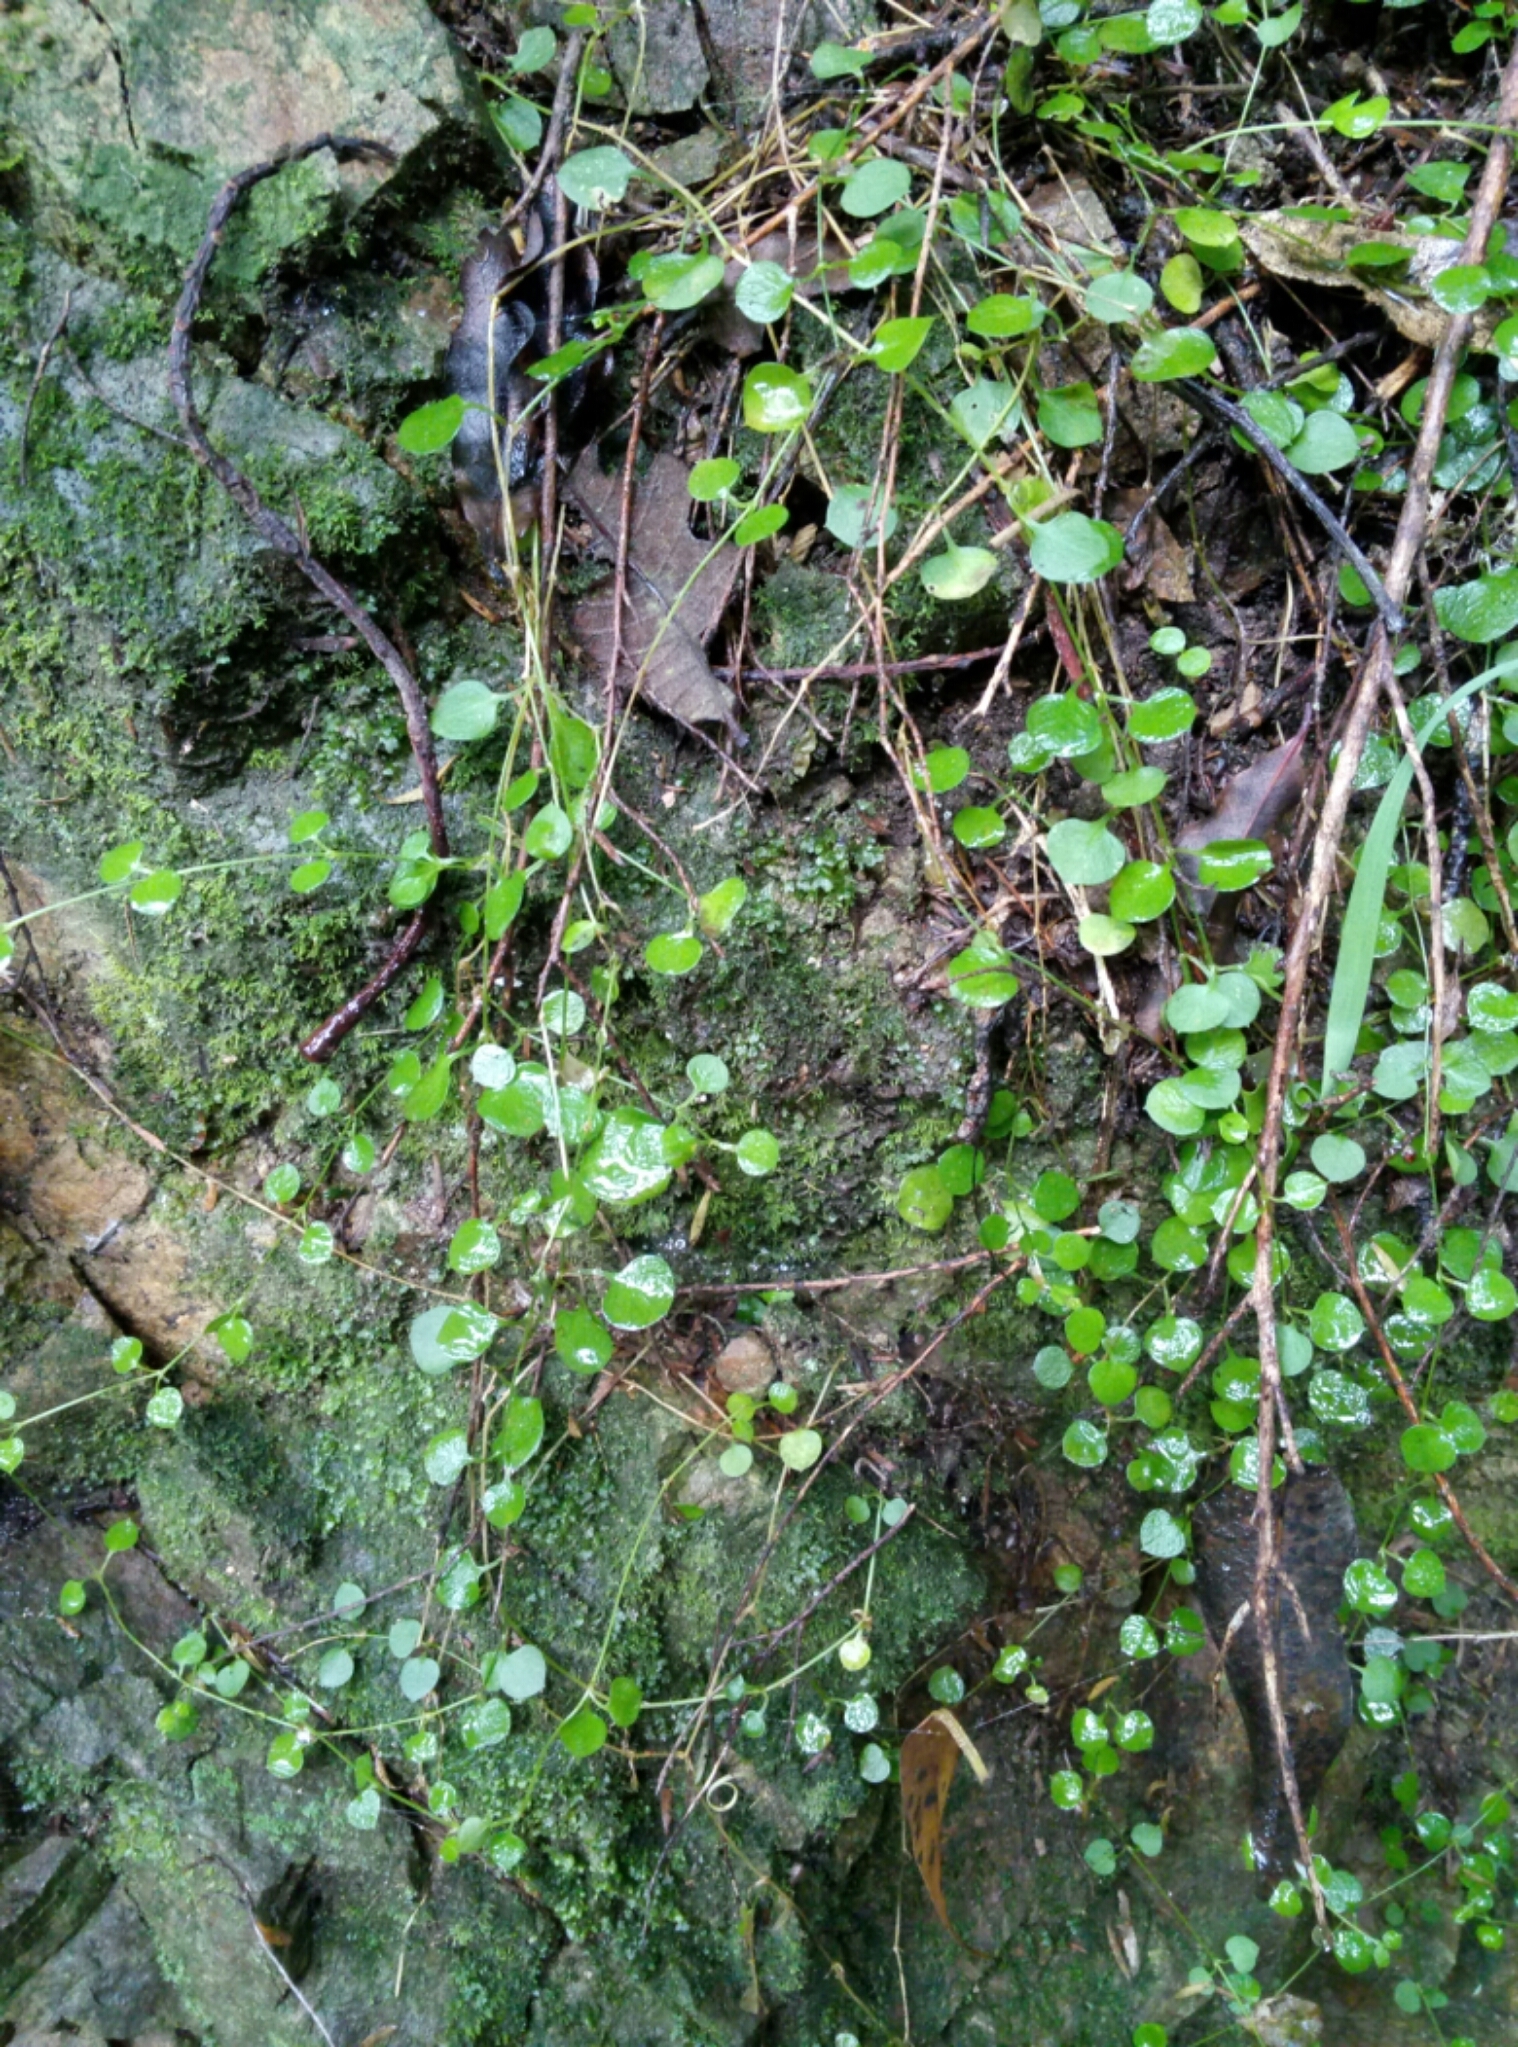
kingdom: Plantae
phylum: Tracheophyta
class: Magnoliopsida
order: Caryophyllales
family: Caryophyllaceae
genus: Stellaria
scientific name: Stellaria parviflora
